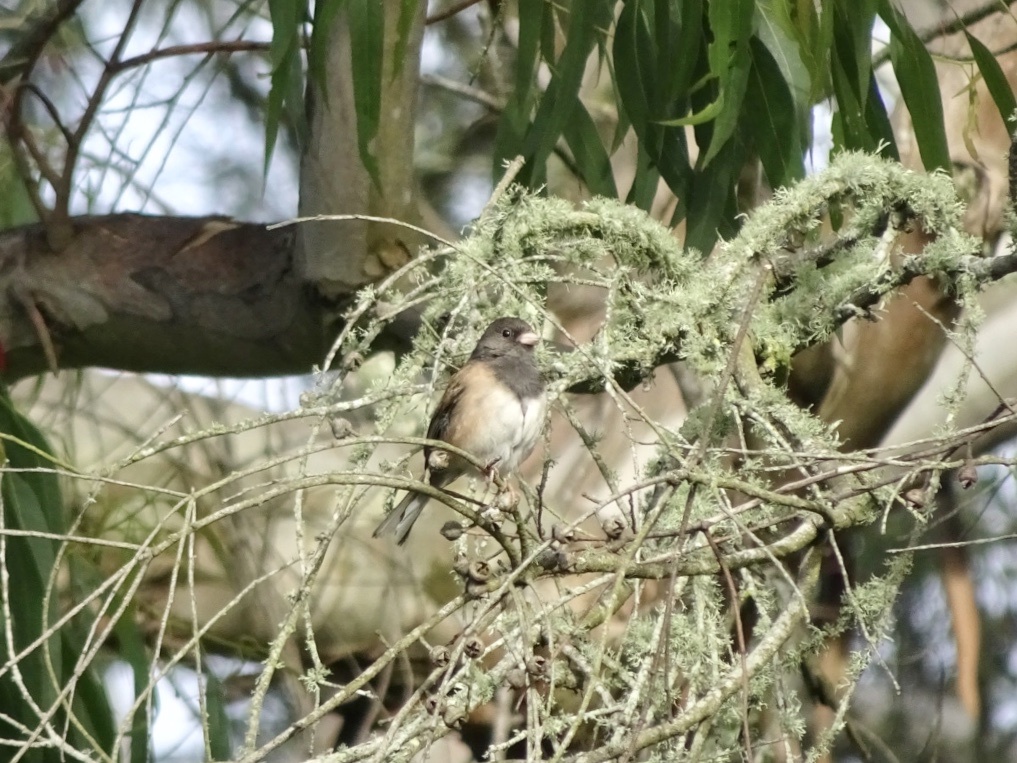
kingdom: Animalia
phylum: Chordata
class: Aves
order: Passeriformes
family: Passerellidae
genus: Junco
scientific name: Junco hyemalis
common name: Dark-eyed junco
